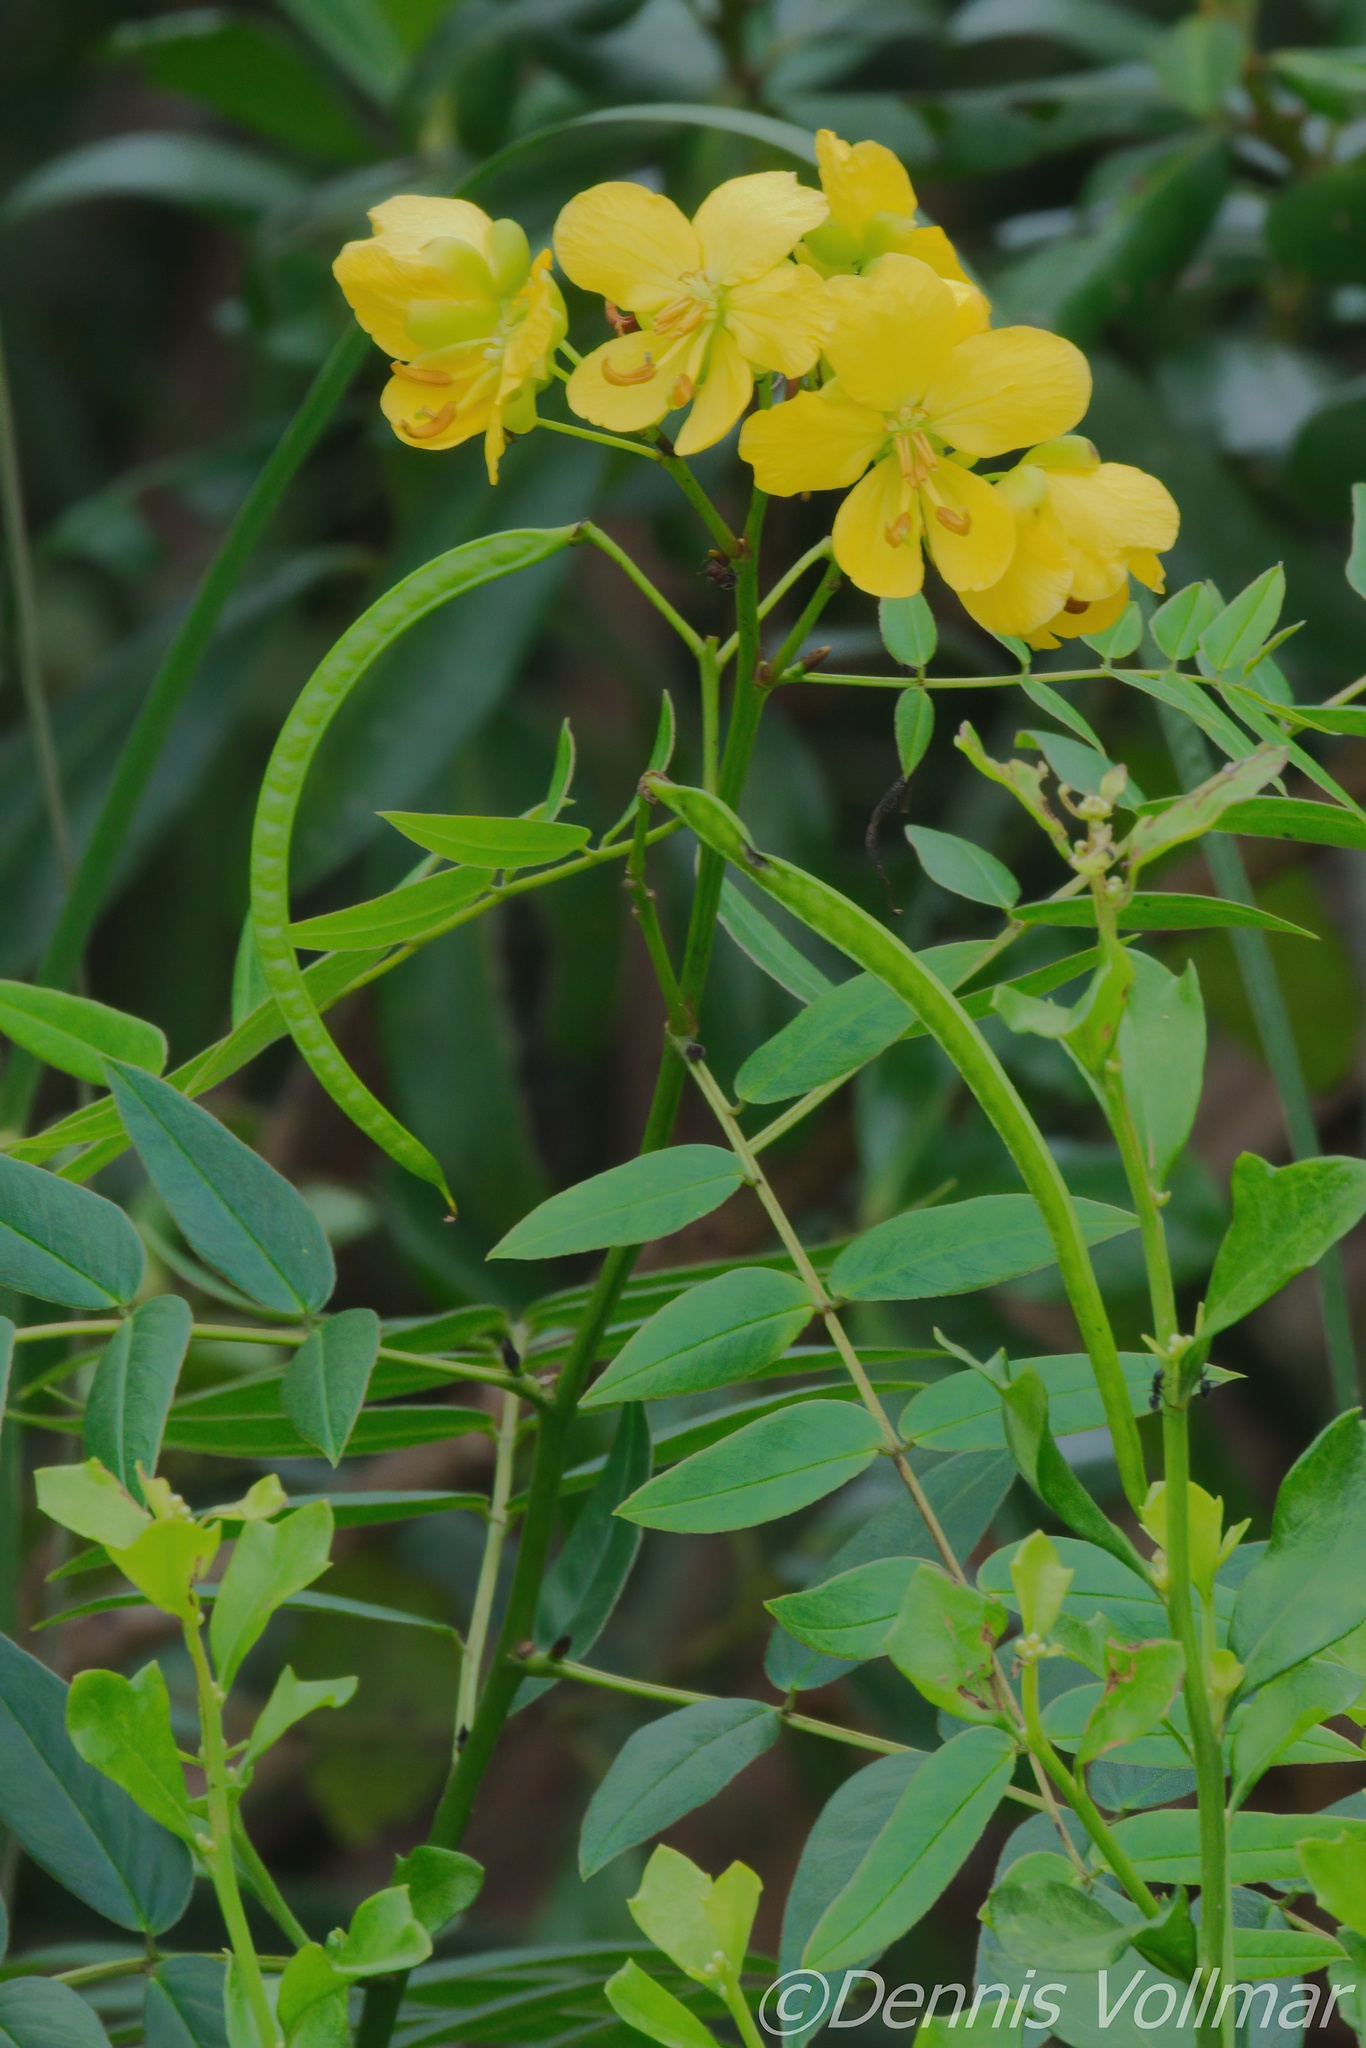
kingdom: Plantae
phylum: Tracheophyta
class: Magnoliopsida
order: Fabales
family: Fabaceae
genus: Senna
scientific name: Senna ligustrina
